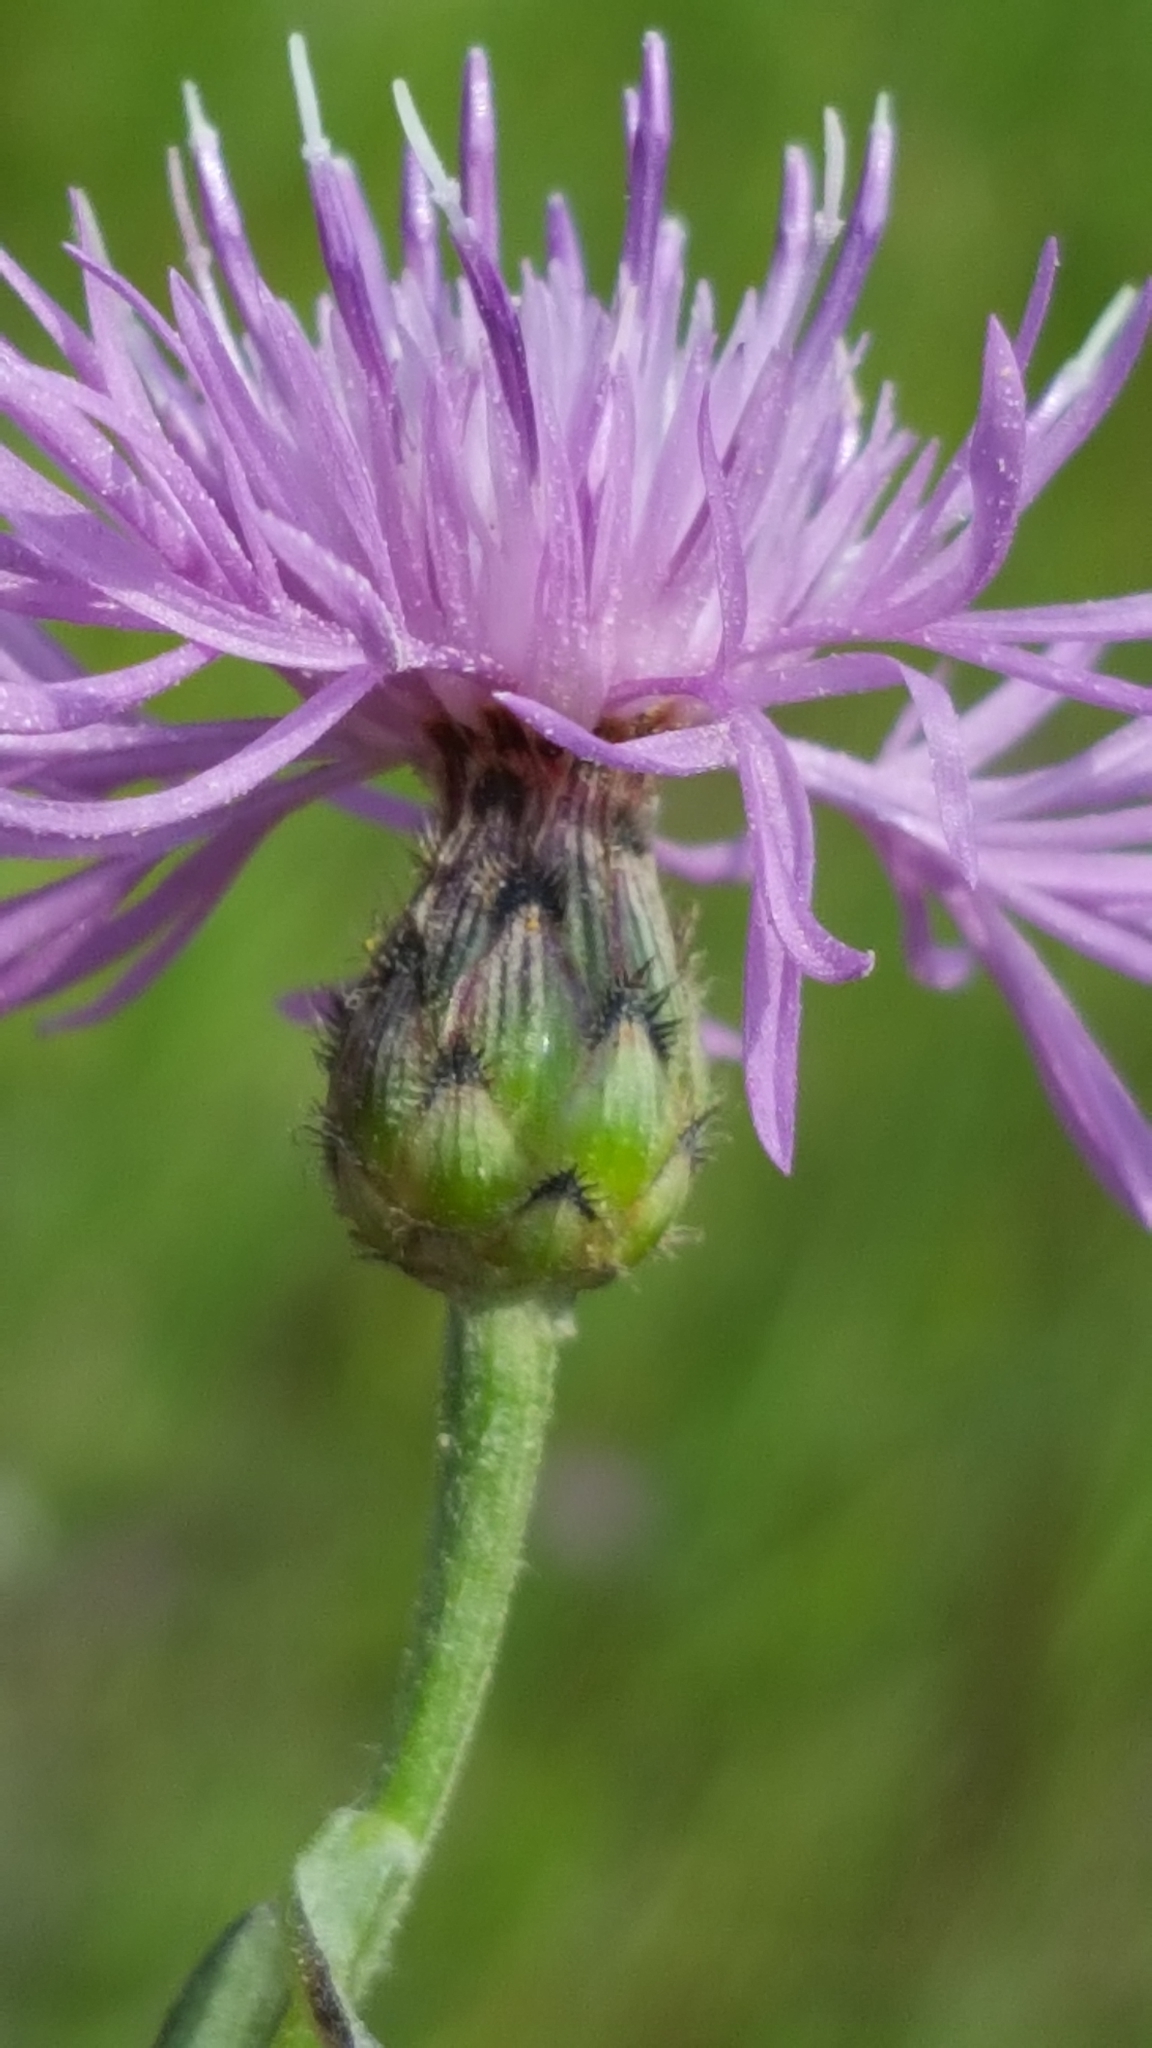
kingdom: Plantae
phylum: Tracheophyta
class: Magnoliopsida
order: Asterales
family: Asteraceae
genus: Centaurea
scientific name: Centaurea stoebe
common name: Spotted knapweed
